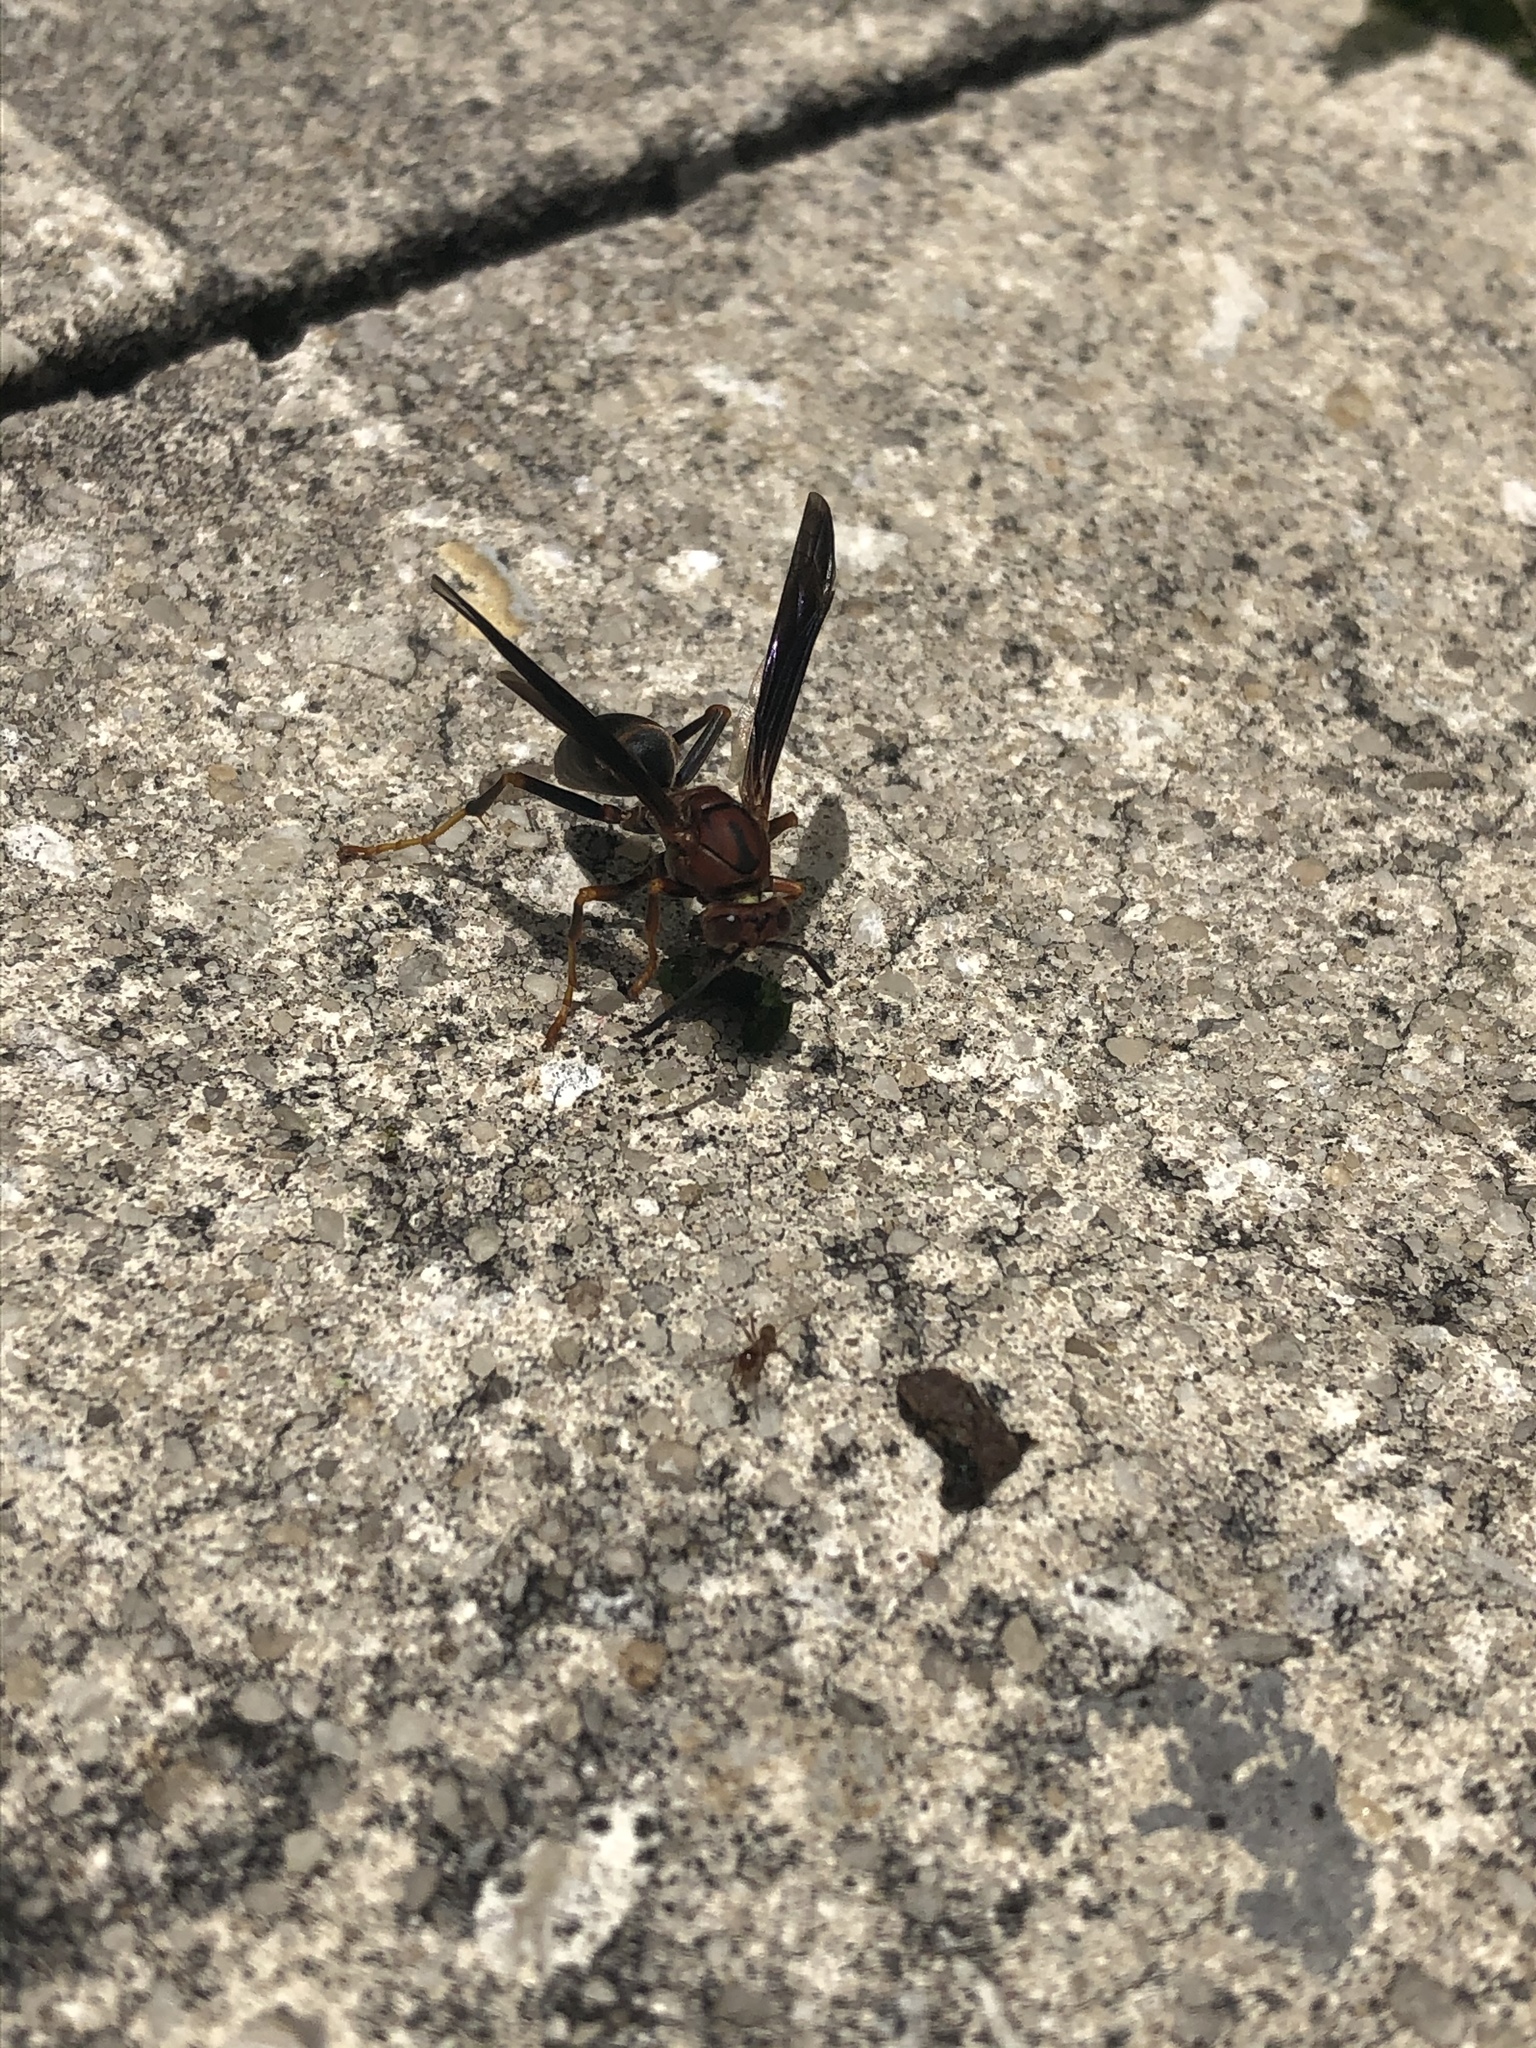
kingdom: Animalia
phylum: Arthropoda
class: Insecta
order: Hymenoptera
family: Eumenidae
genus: Polistes
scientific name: Polistes metricus
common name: Metric paper wasp
